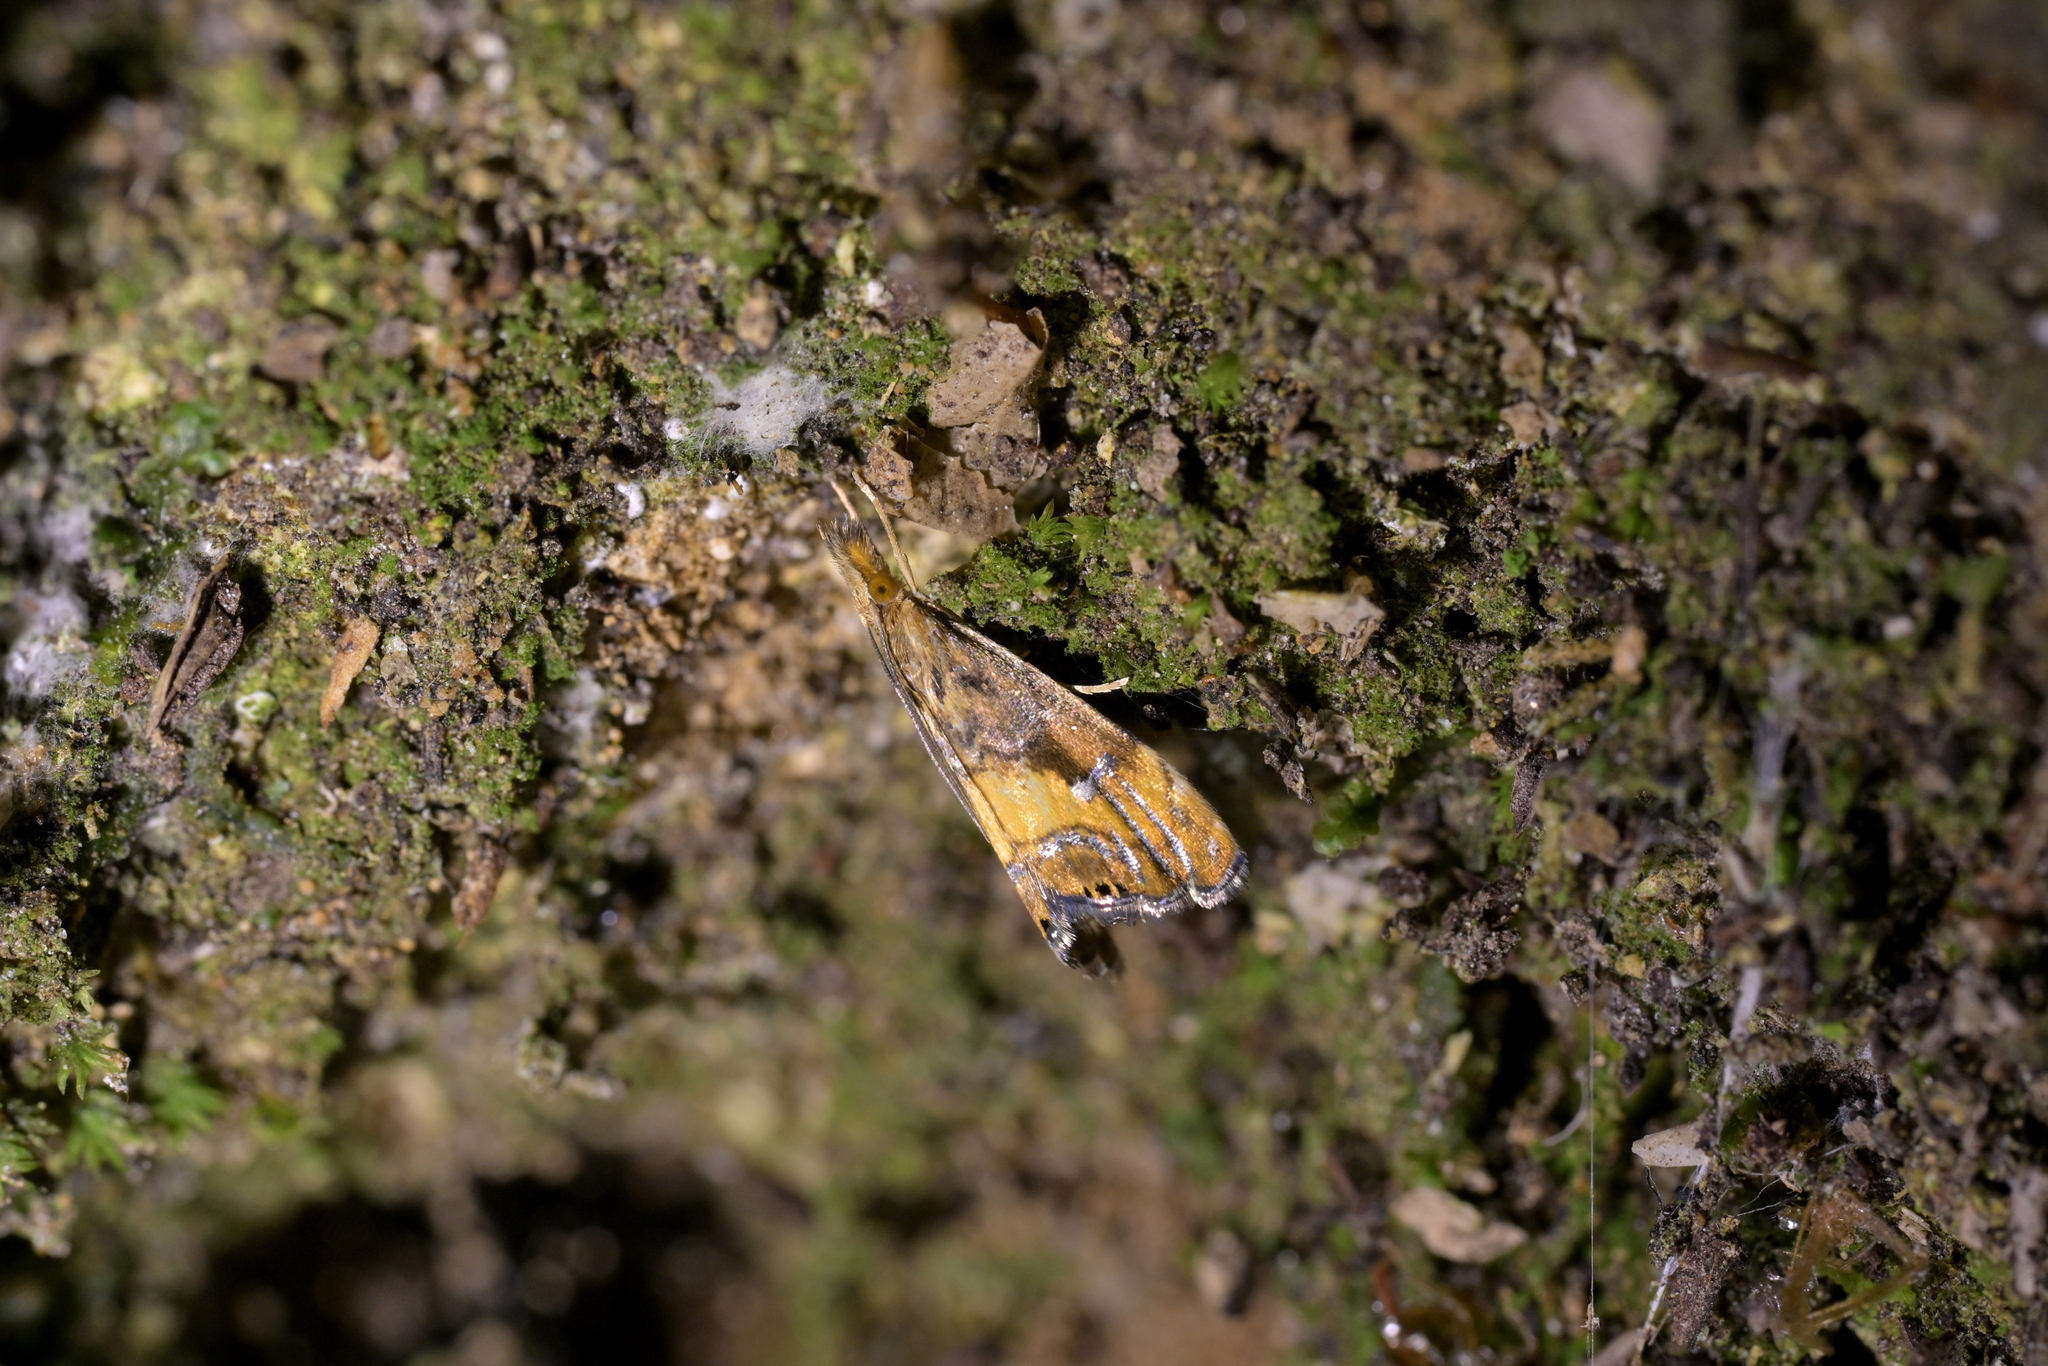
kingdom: Animalia
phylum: Arthropoda
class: Insecta
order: Lepidoptera
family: Crambidae
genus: Glaucocharis
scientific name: Glaucocharis chrysochyta
